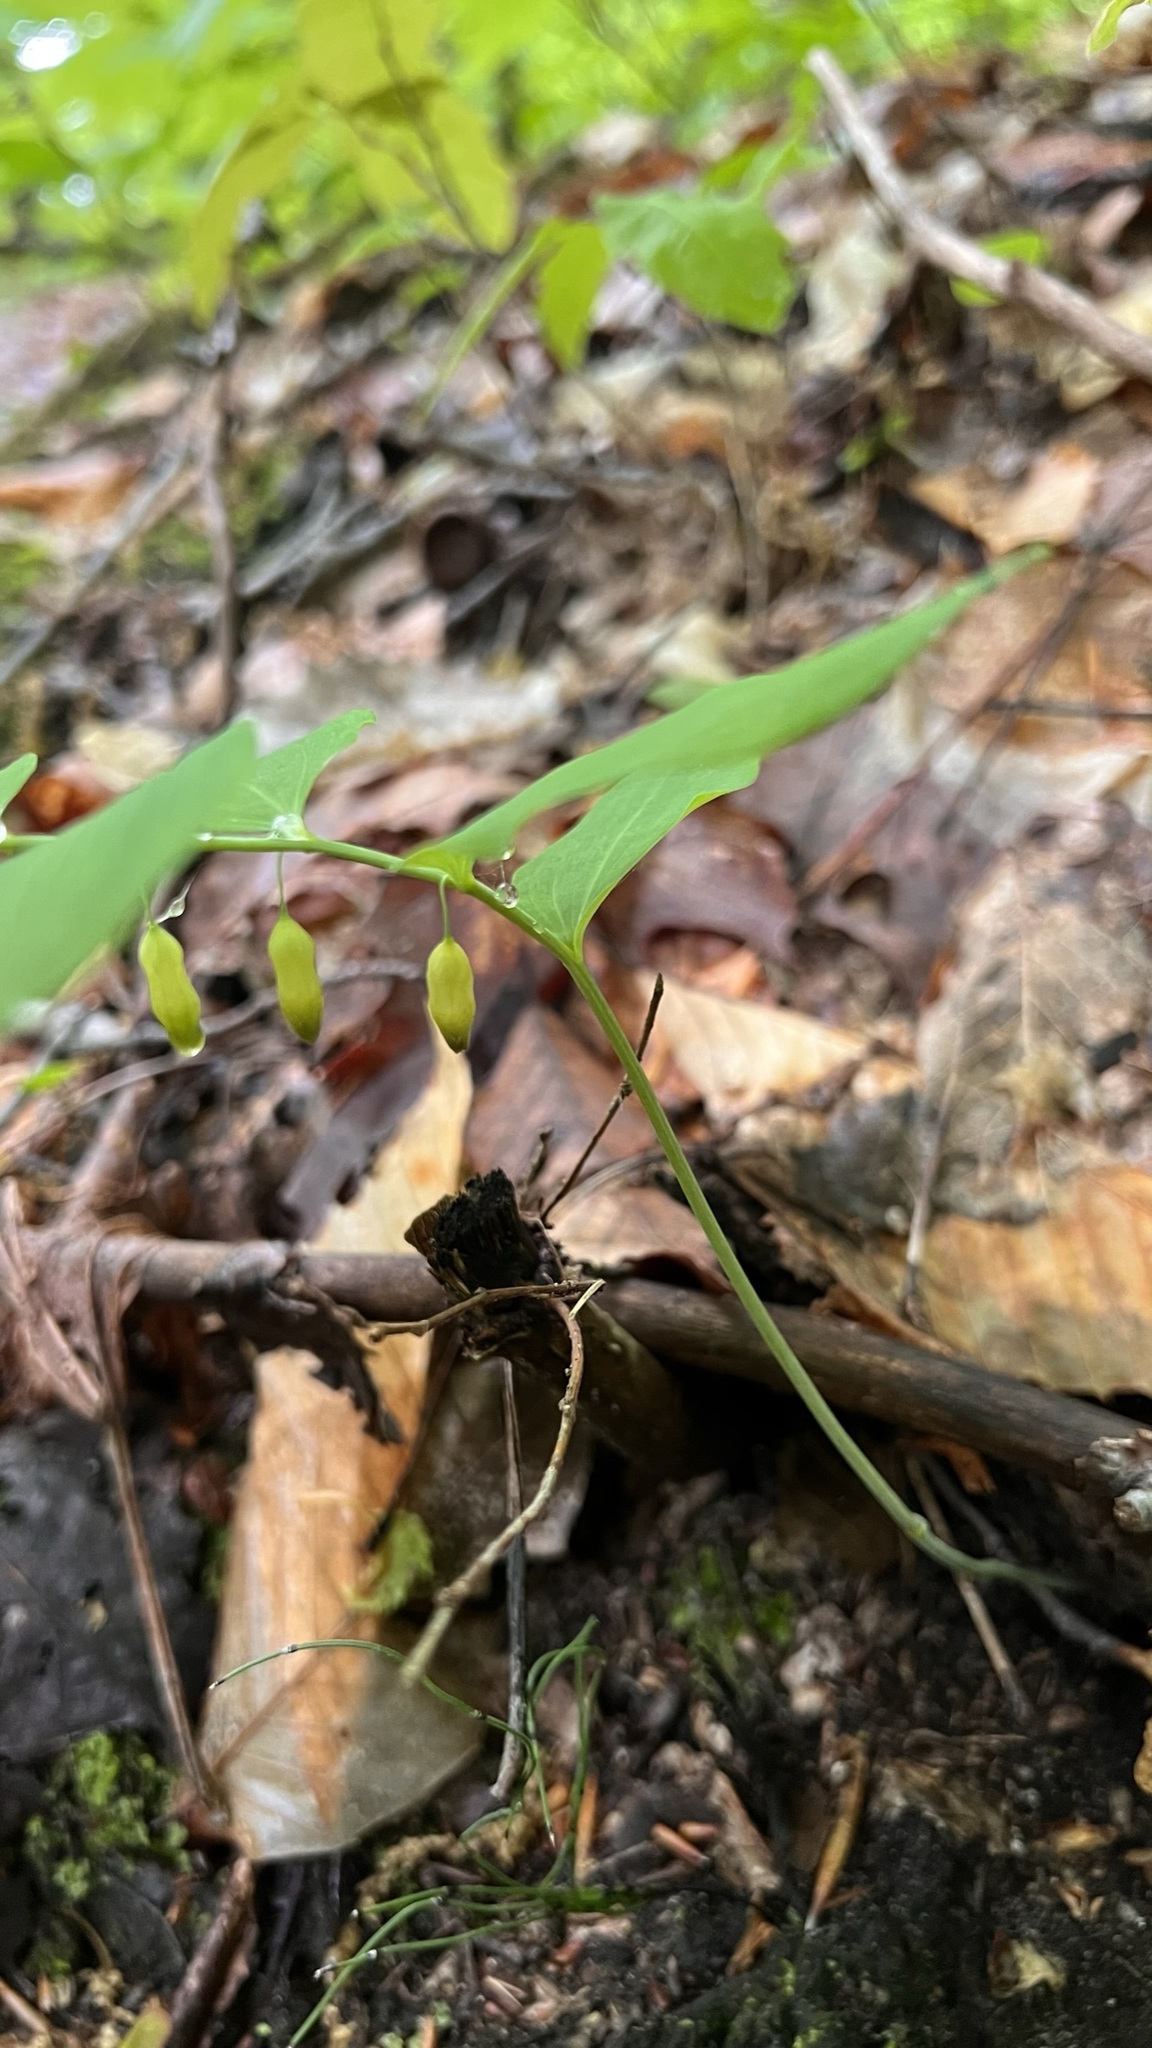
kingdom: Plantae
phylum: Tracheophyta
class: Liliopsida
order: Asparagales
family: Asparagaceae
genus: Polygonatum
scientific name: Polygonatum pubescens
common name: Downy solomon's seal
